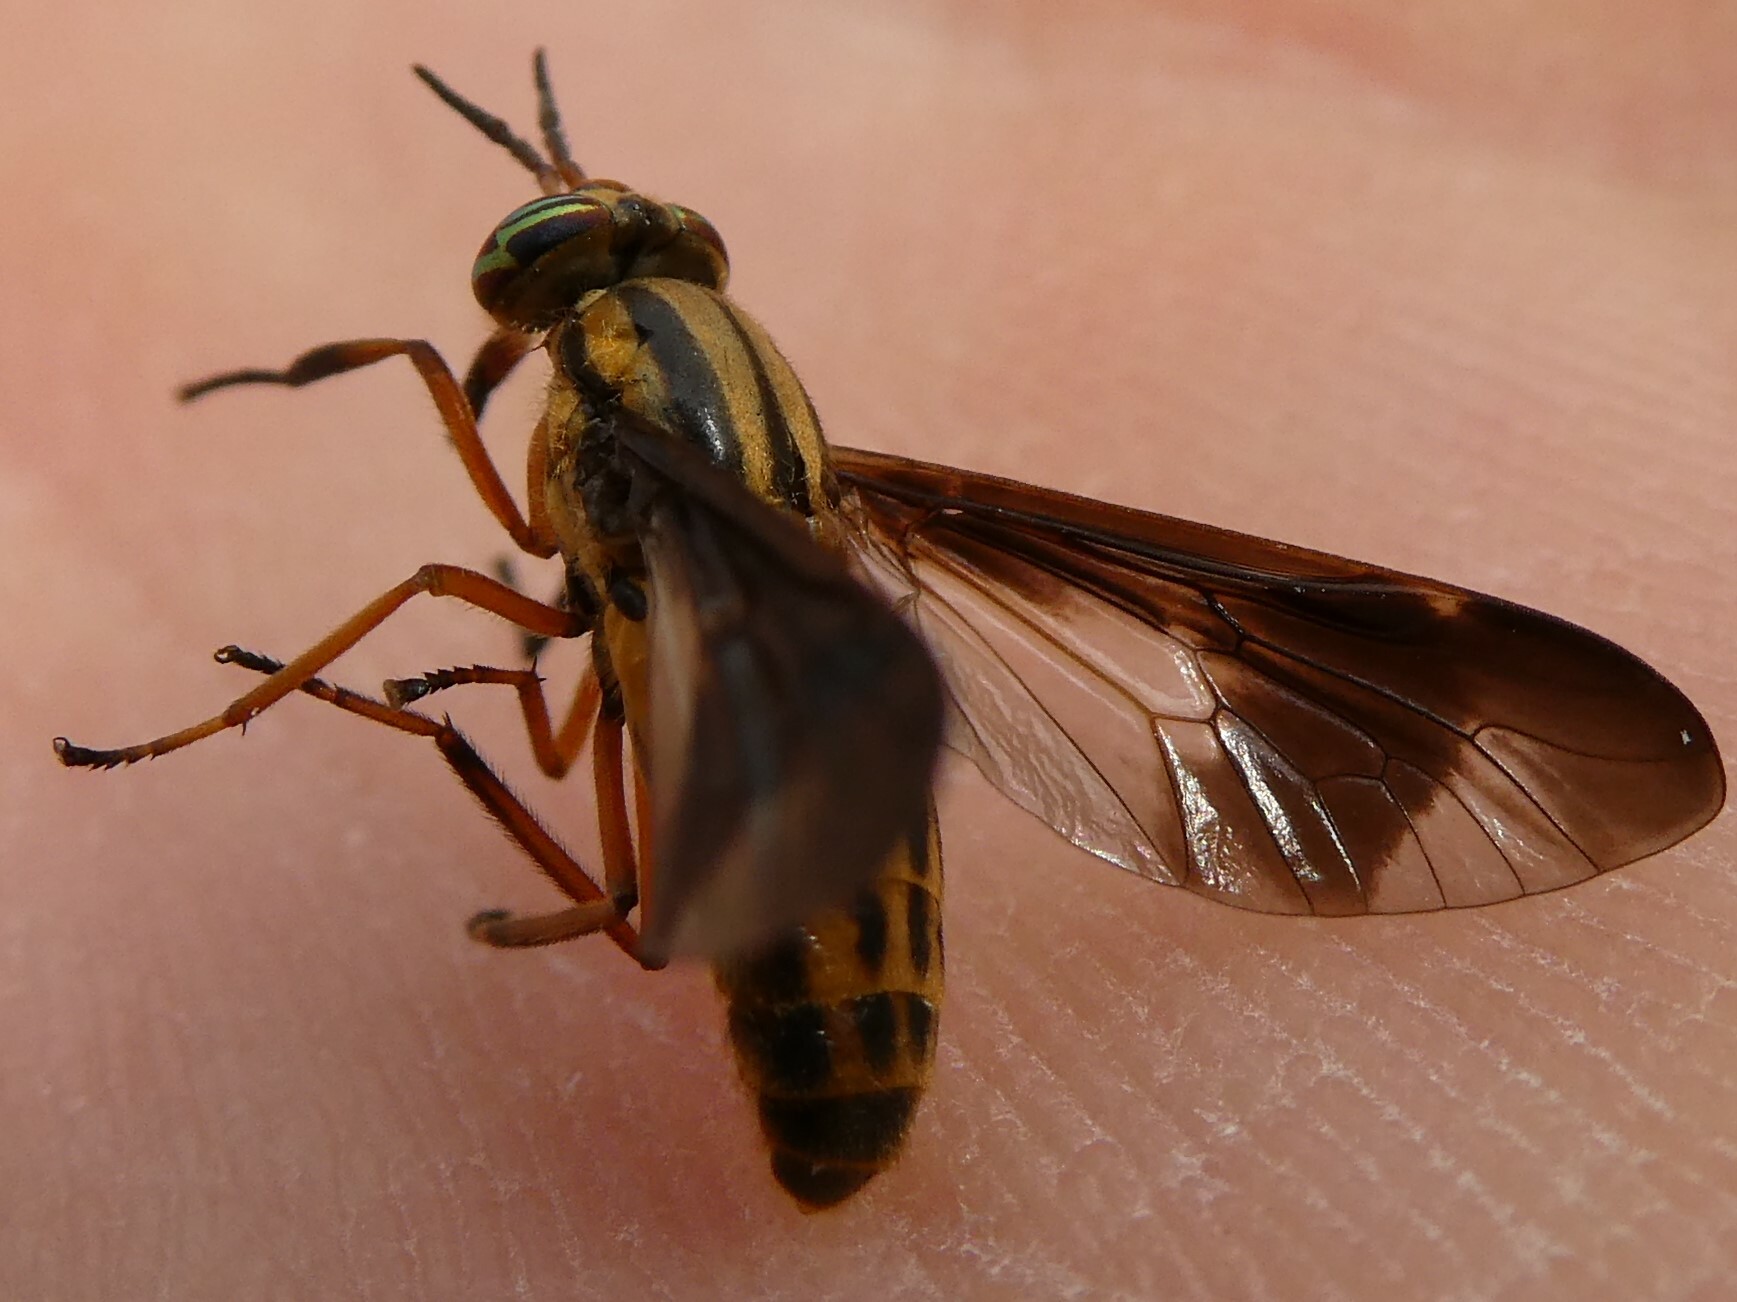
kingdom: Animalia
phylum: Arthropoda
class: Insecta
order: Diptera
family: Tabanidae
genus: Chrysops
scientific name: Chrysops vittatus
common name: Striped deer fly
